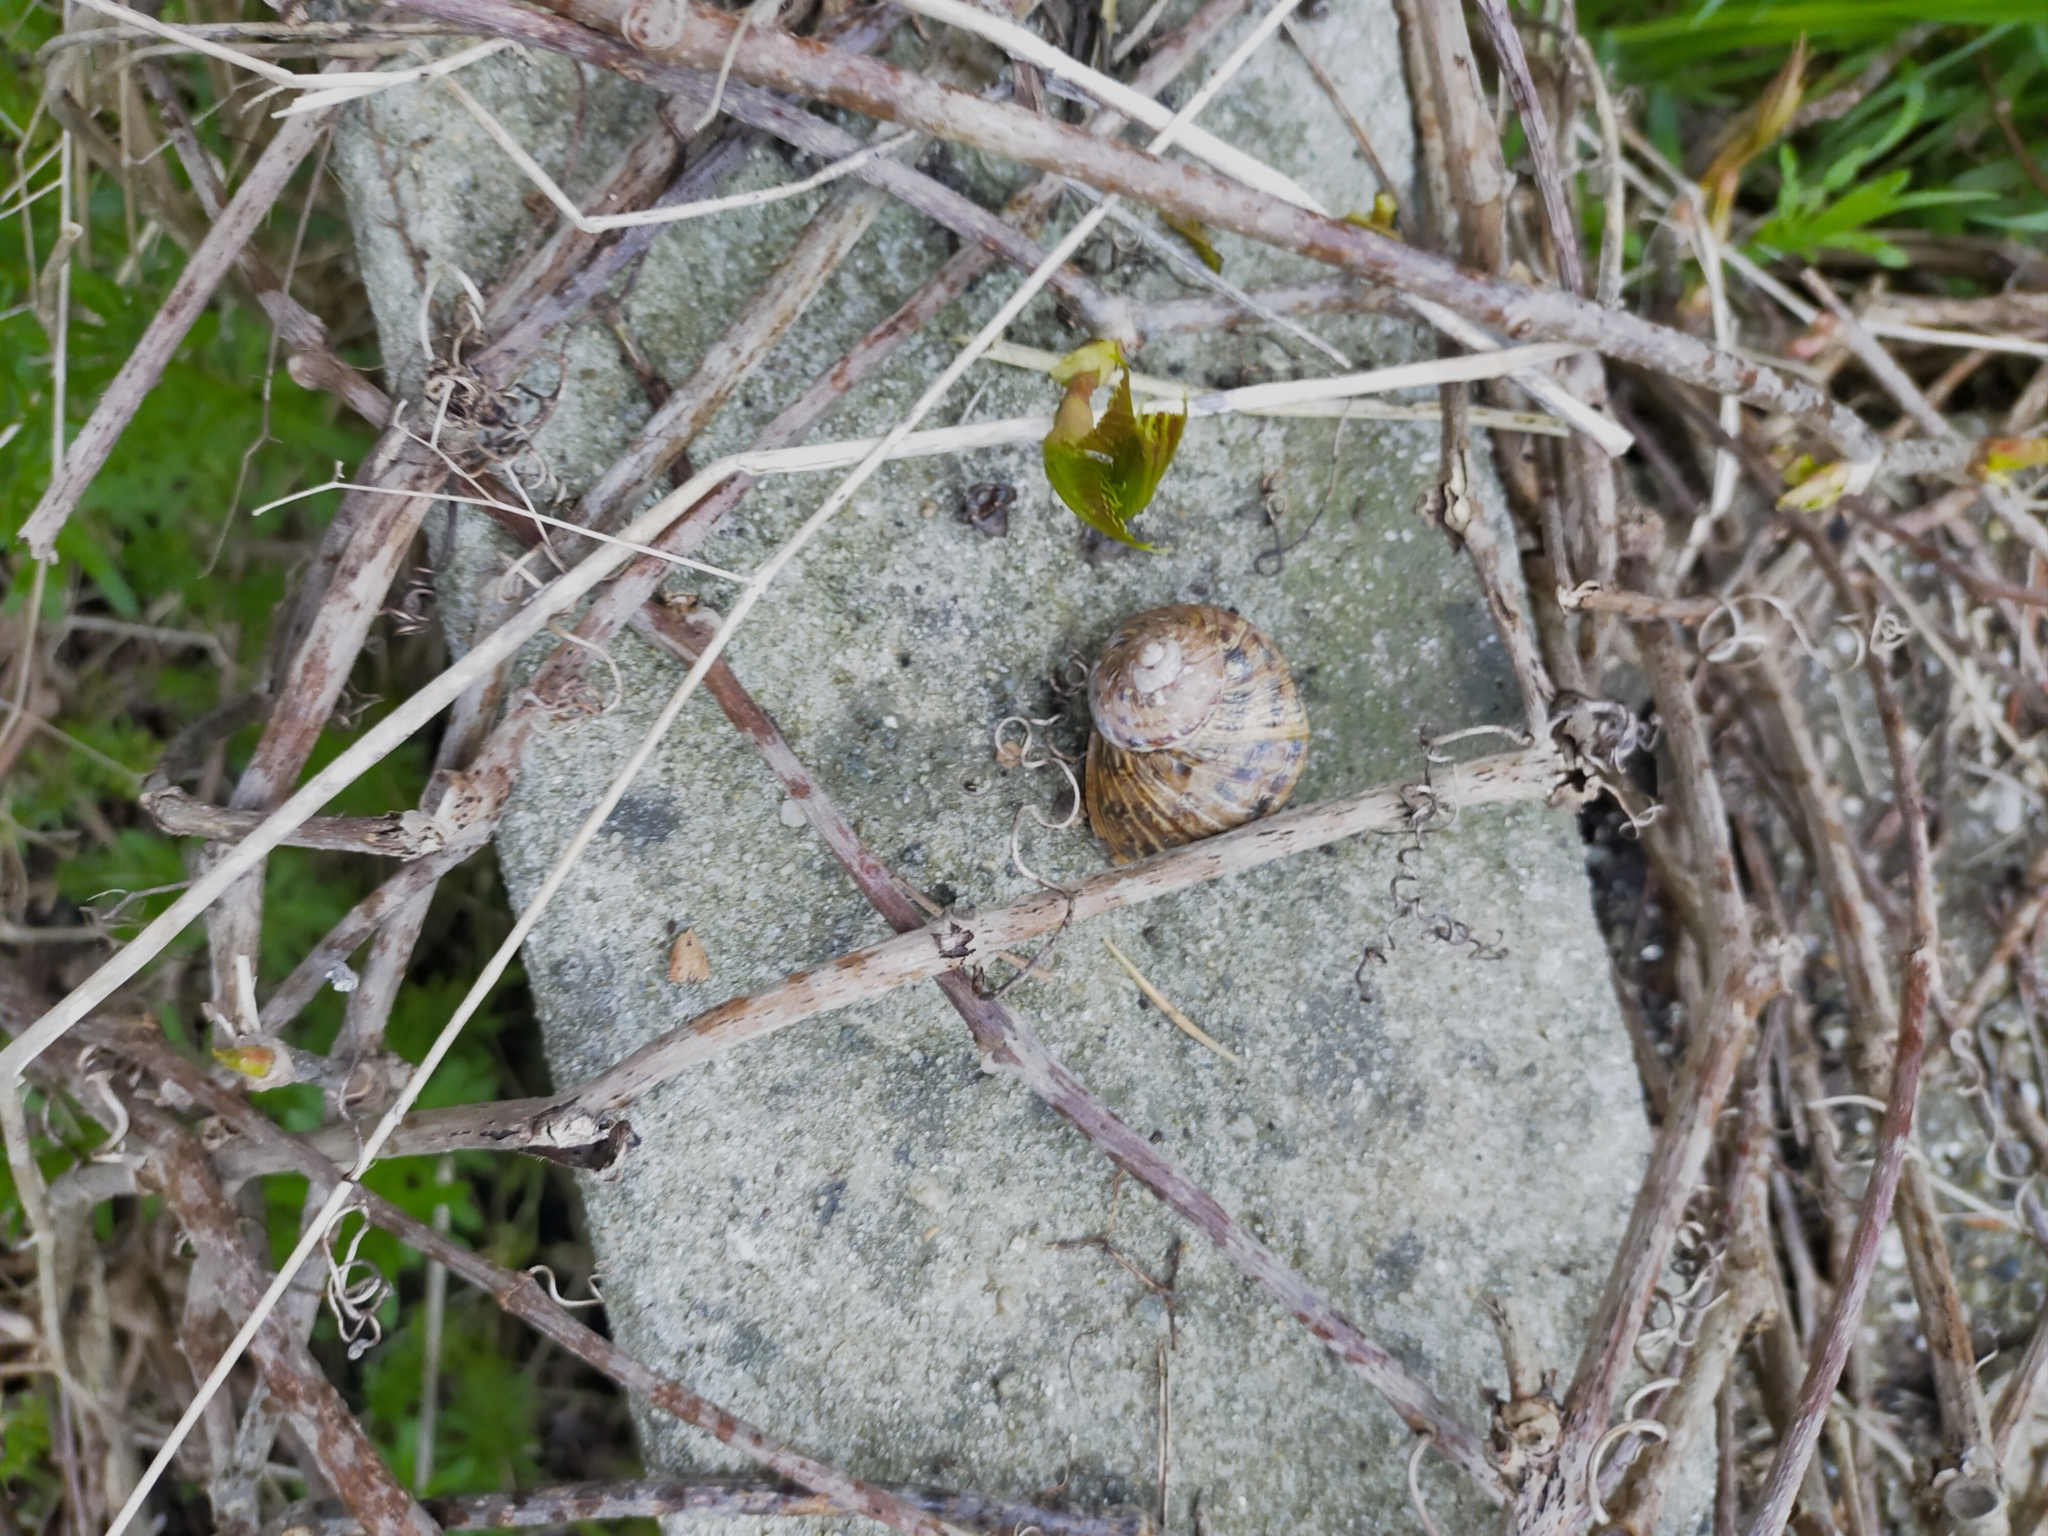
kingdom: Animalia
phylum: Mollusca
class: Gastropoda
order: Stylommatophora
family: Helicidae
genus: Cornu
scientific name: Cornu aspersum
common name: Brown garden snail
